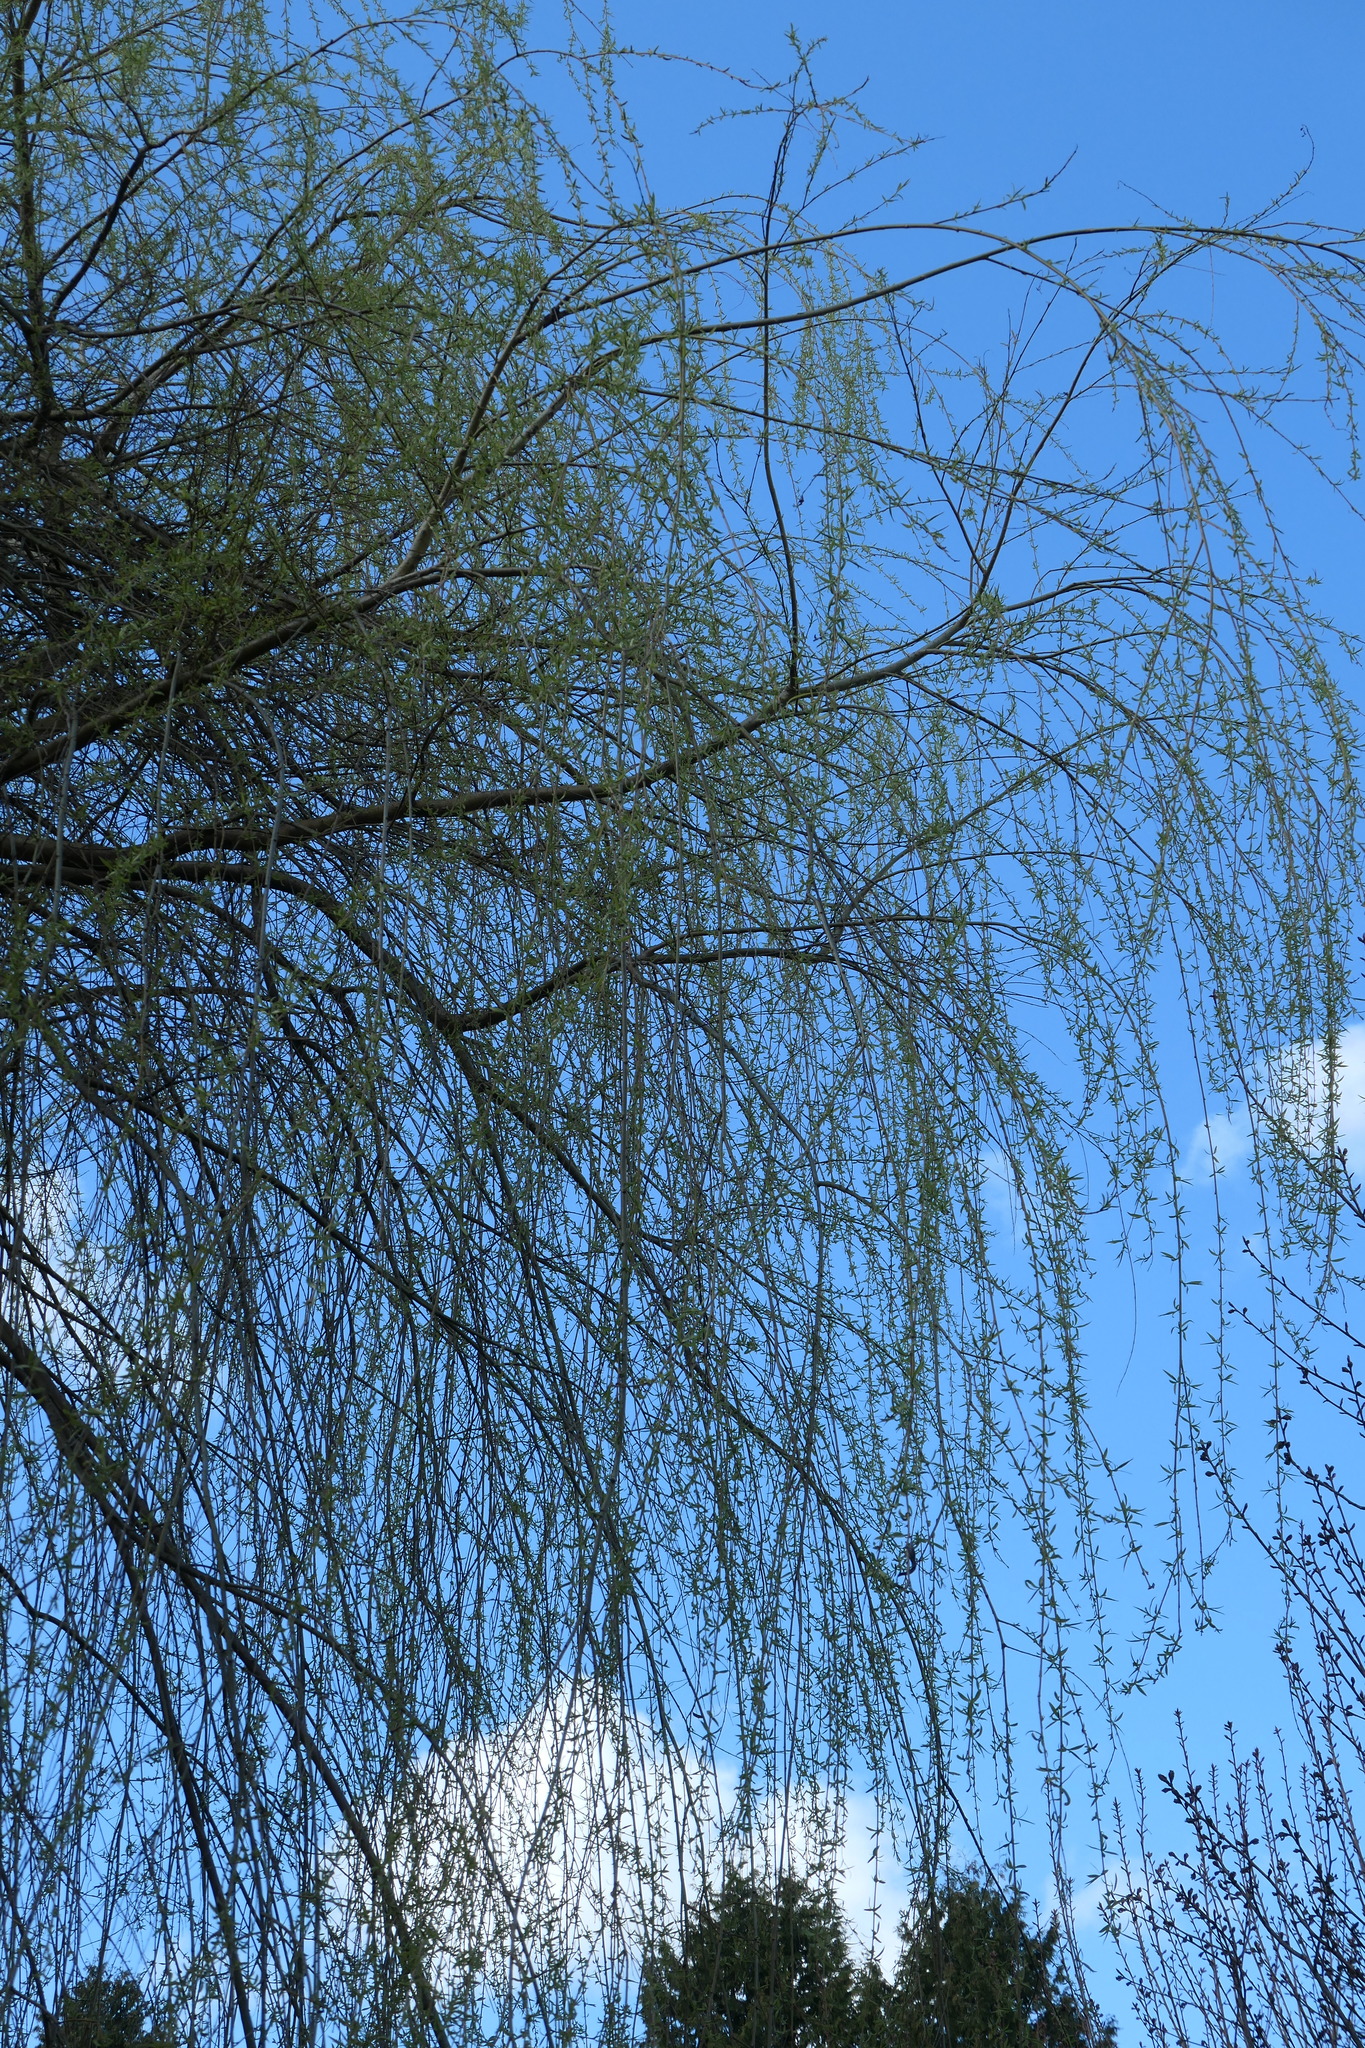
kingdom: Plantae
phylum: Tracheophyta
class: Magnoliopsida
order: Malpighiales
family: Salicaceae
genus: Salix
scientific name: Salix pendulina
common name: Wisconsin weeping willow
